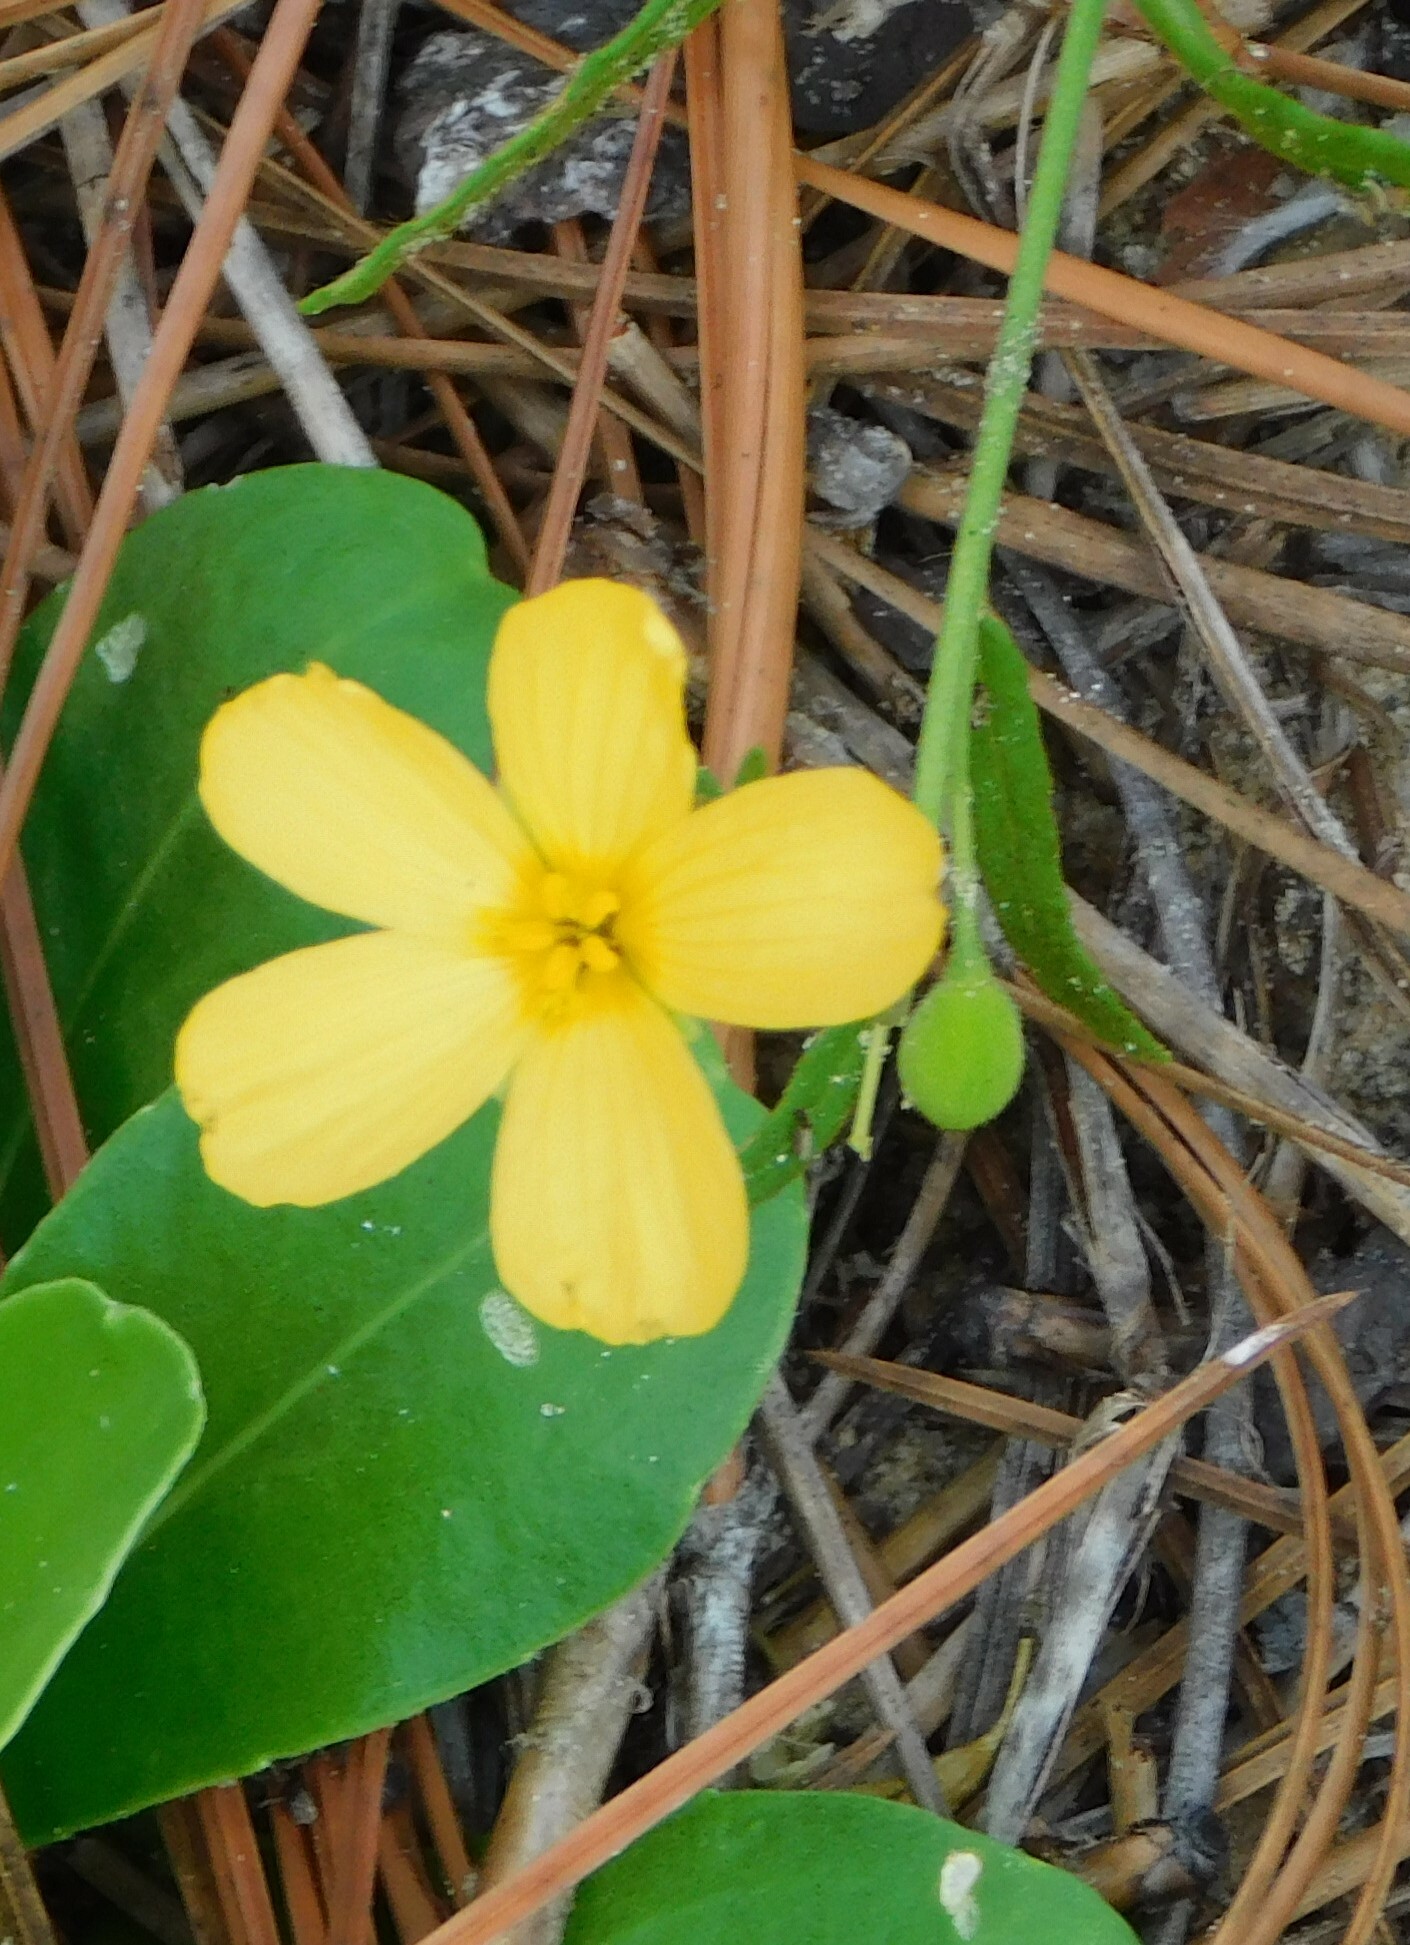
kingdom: Plantae
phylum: Tracheophyta
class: Magnoliopsida
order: Malpighiales
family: Turneraceae
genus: Piriqueta
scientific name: Piriqueta cistoides
